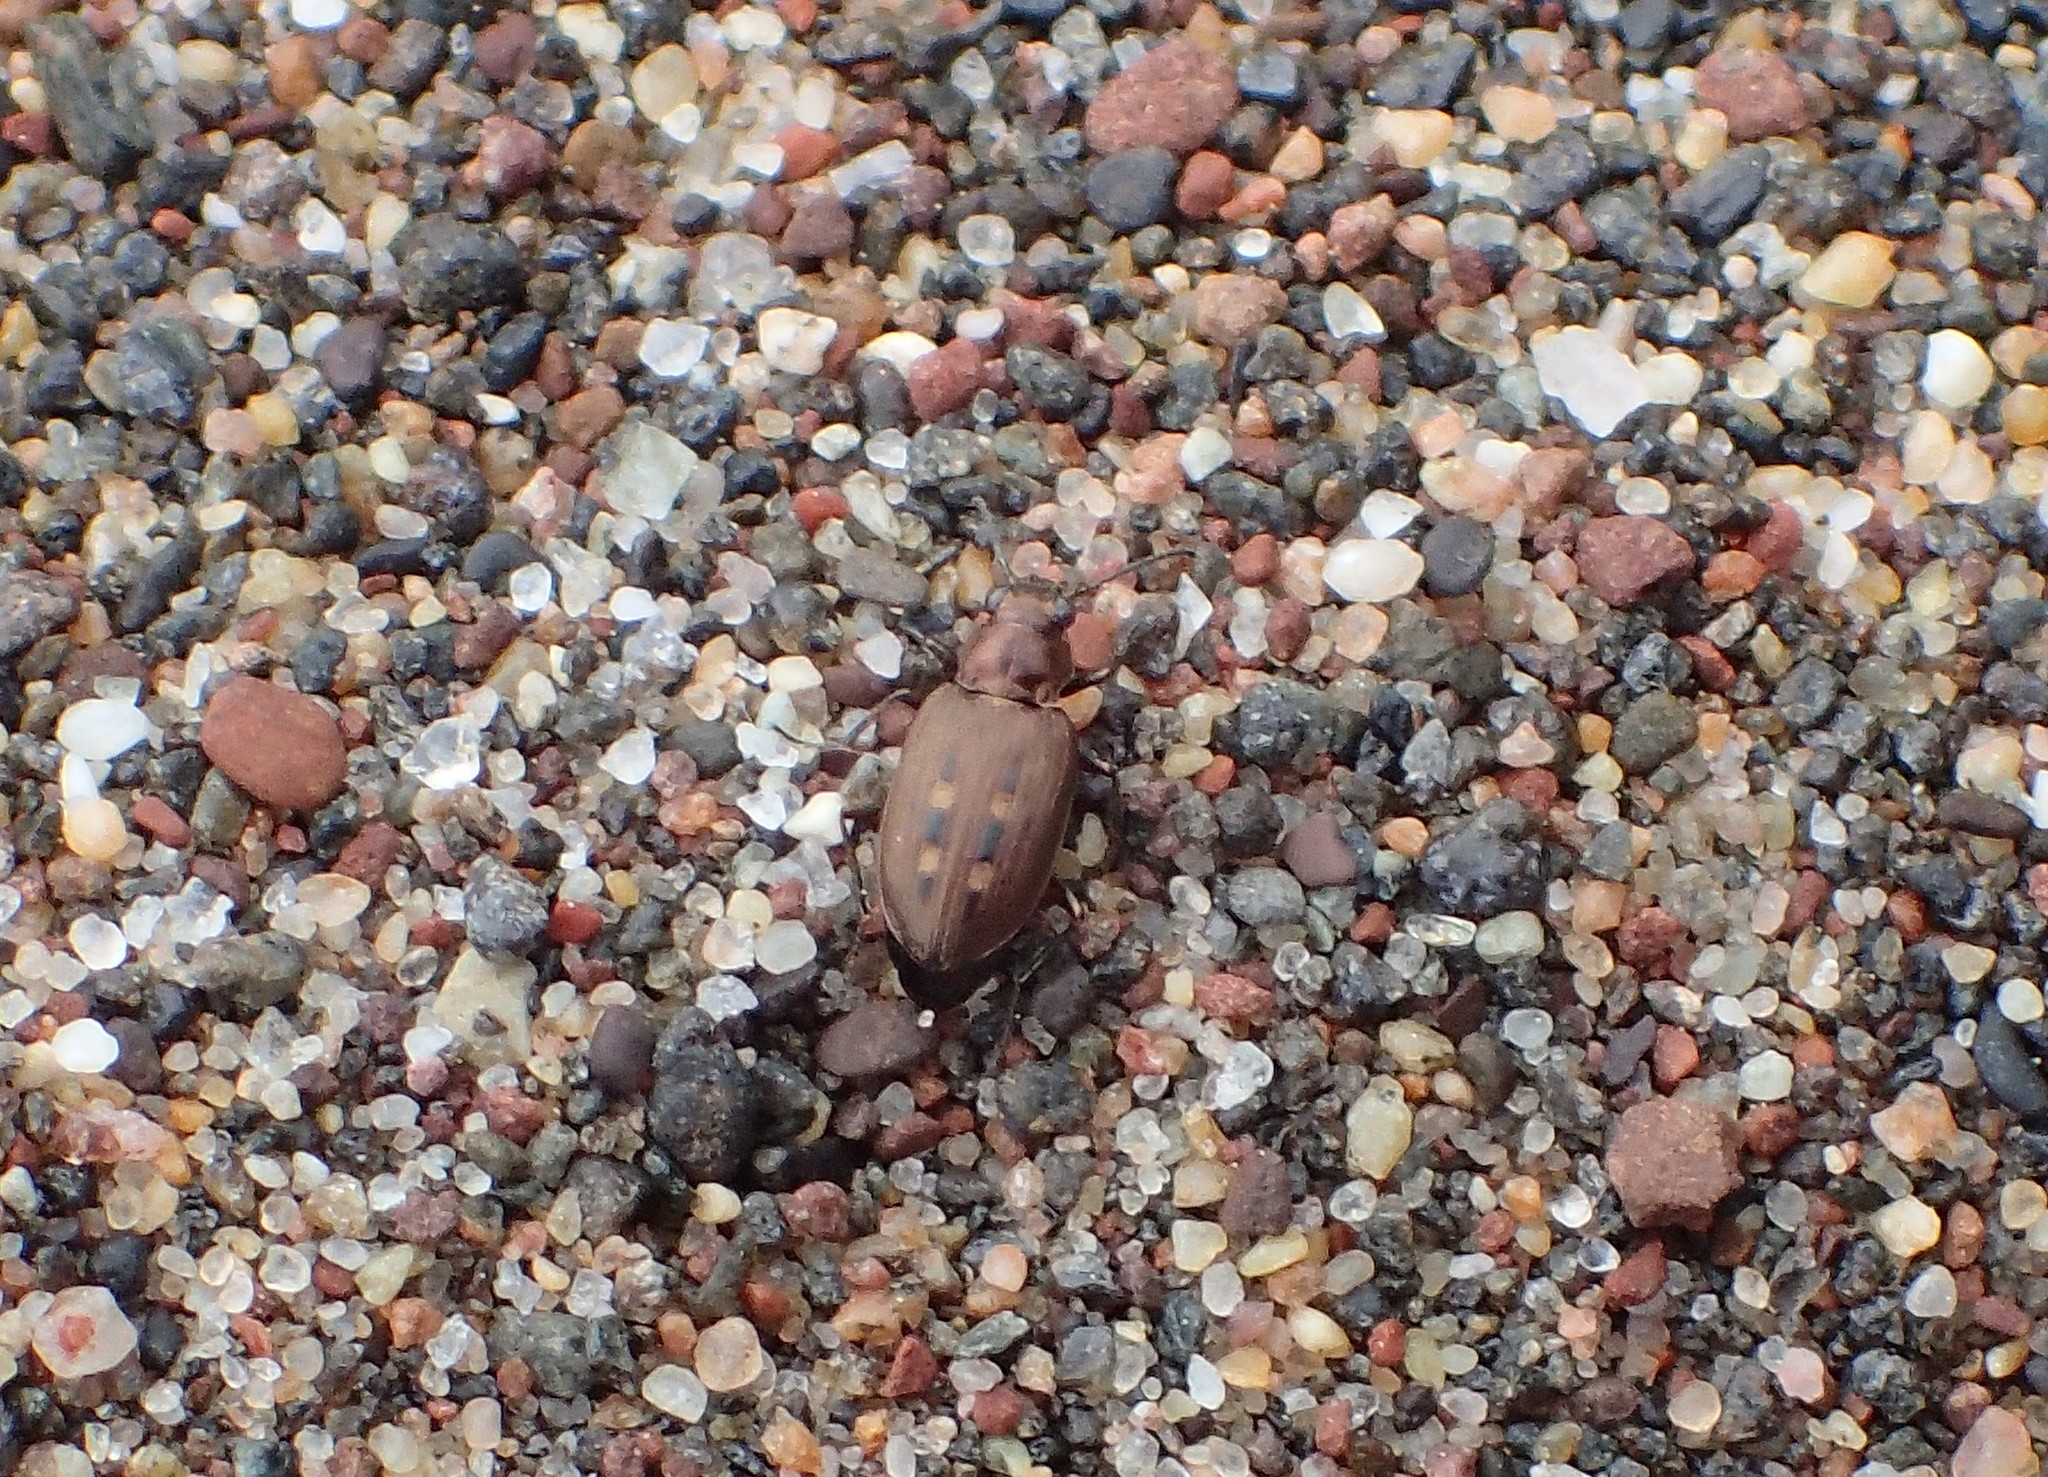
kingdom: Animalia
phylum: Arthropoda
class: Insecta
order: Coleoptera
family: Carabidae
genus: Bembidion
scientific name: Bembidion inaequale
